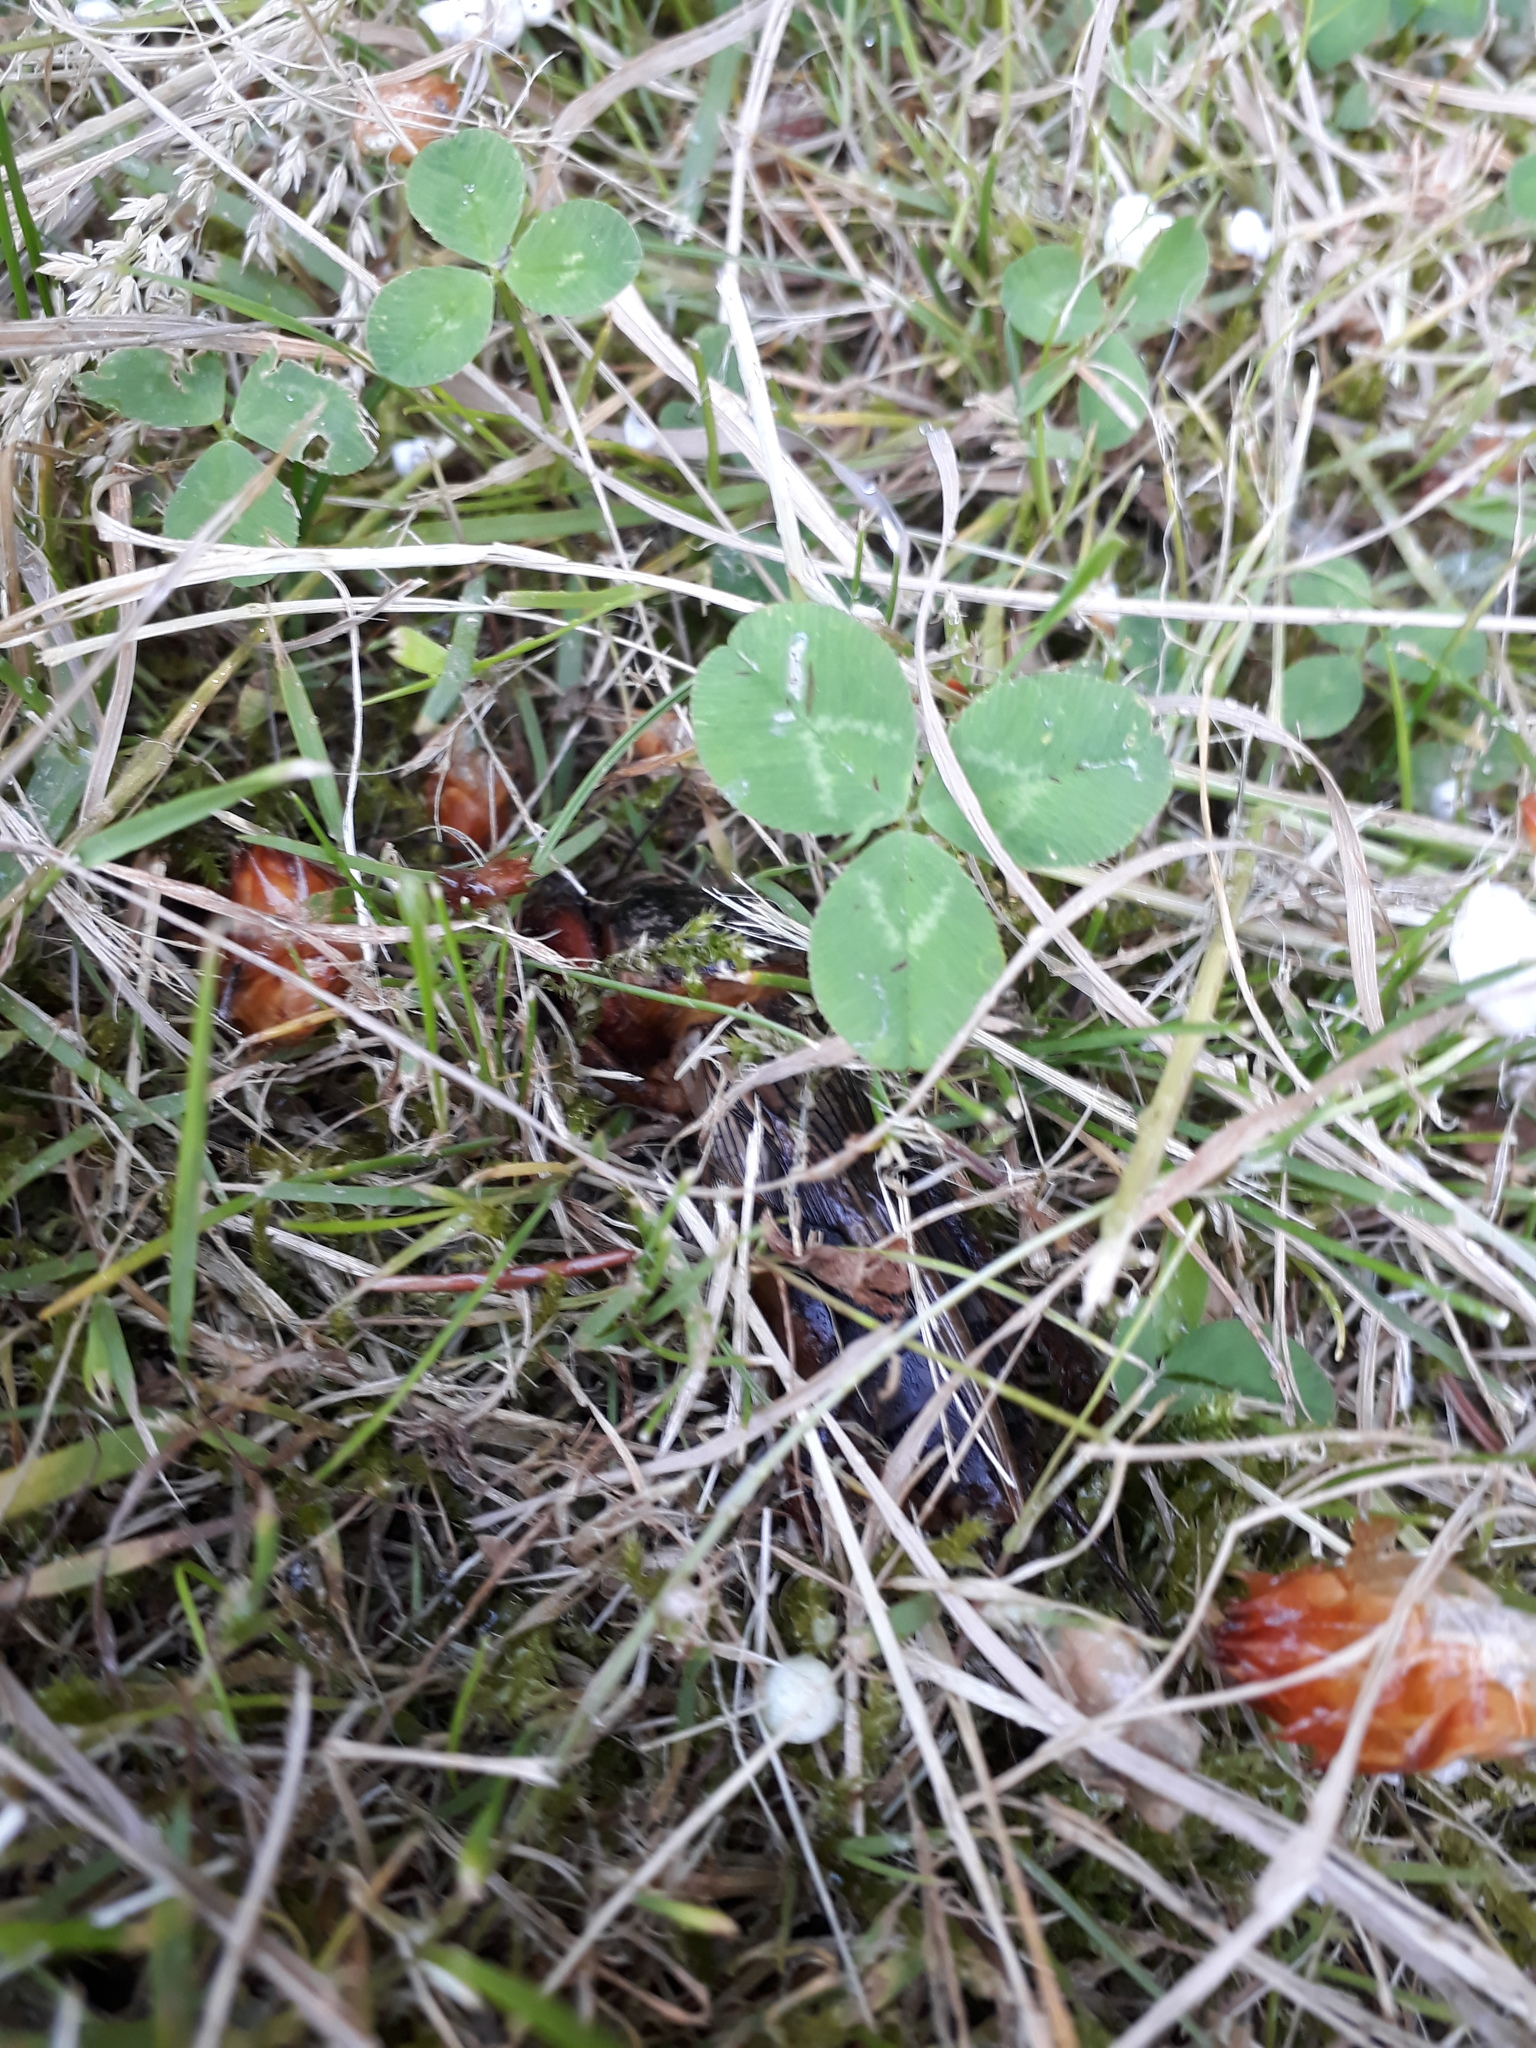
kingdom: Animalia
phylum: Arthropoda
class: Insecta
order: Orthoptera
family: Gryllotalpidae
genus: Gryllotalpa
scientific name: Gryllotalpa gryllotalpa
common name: European mole cricket
